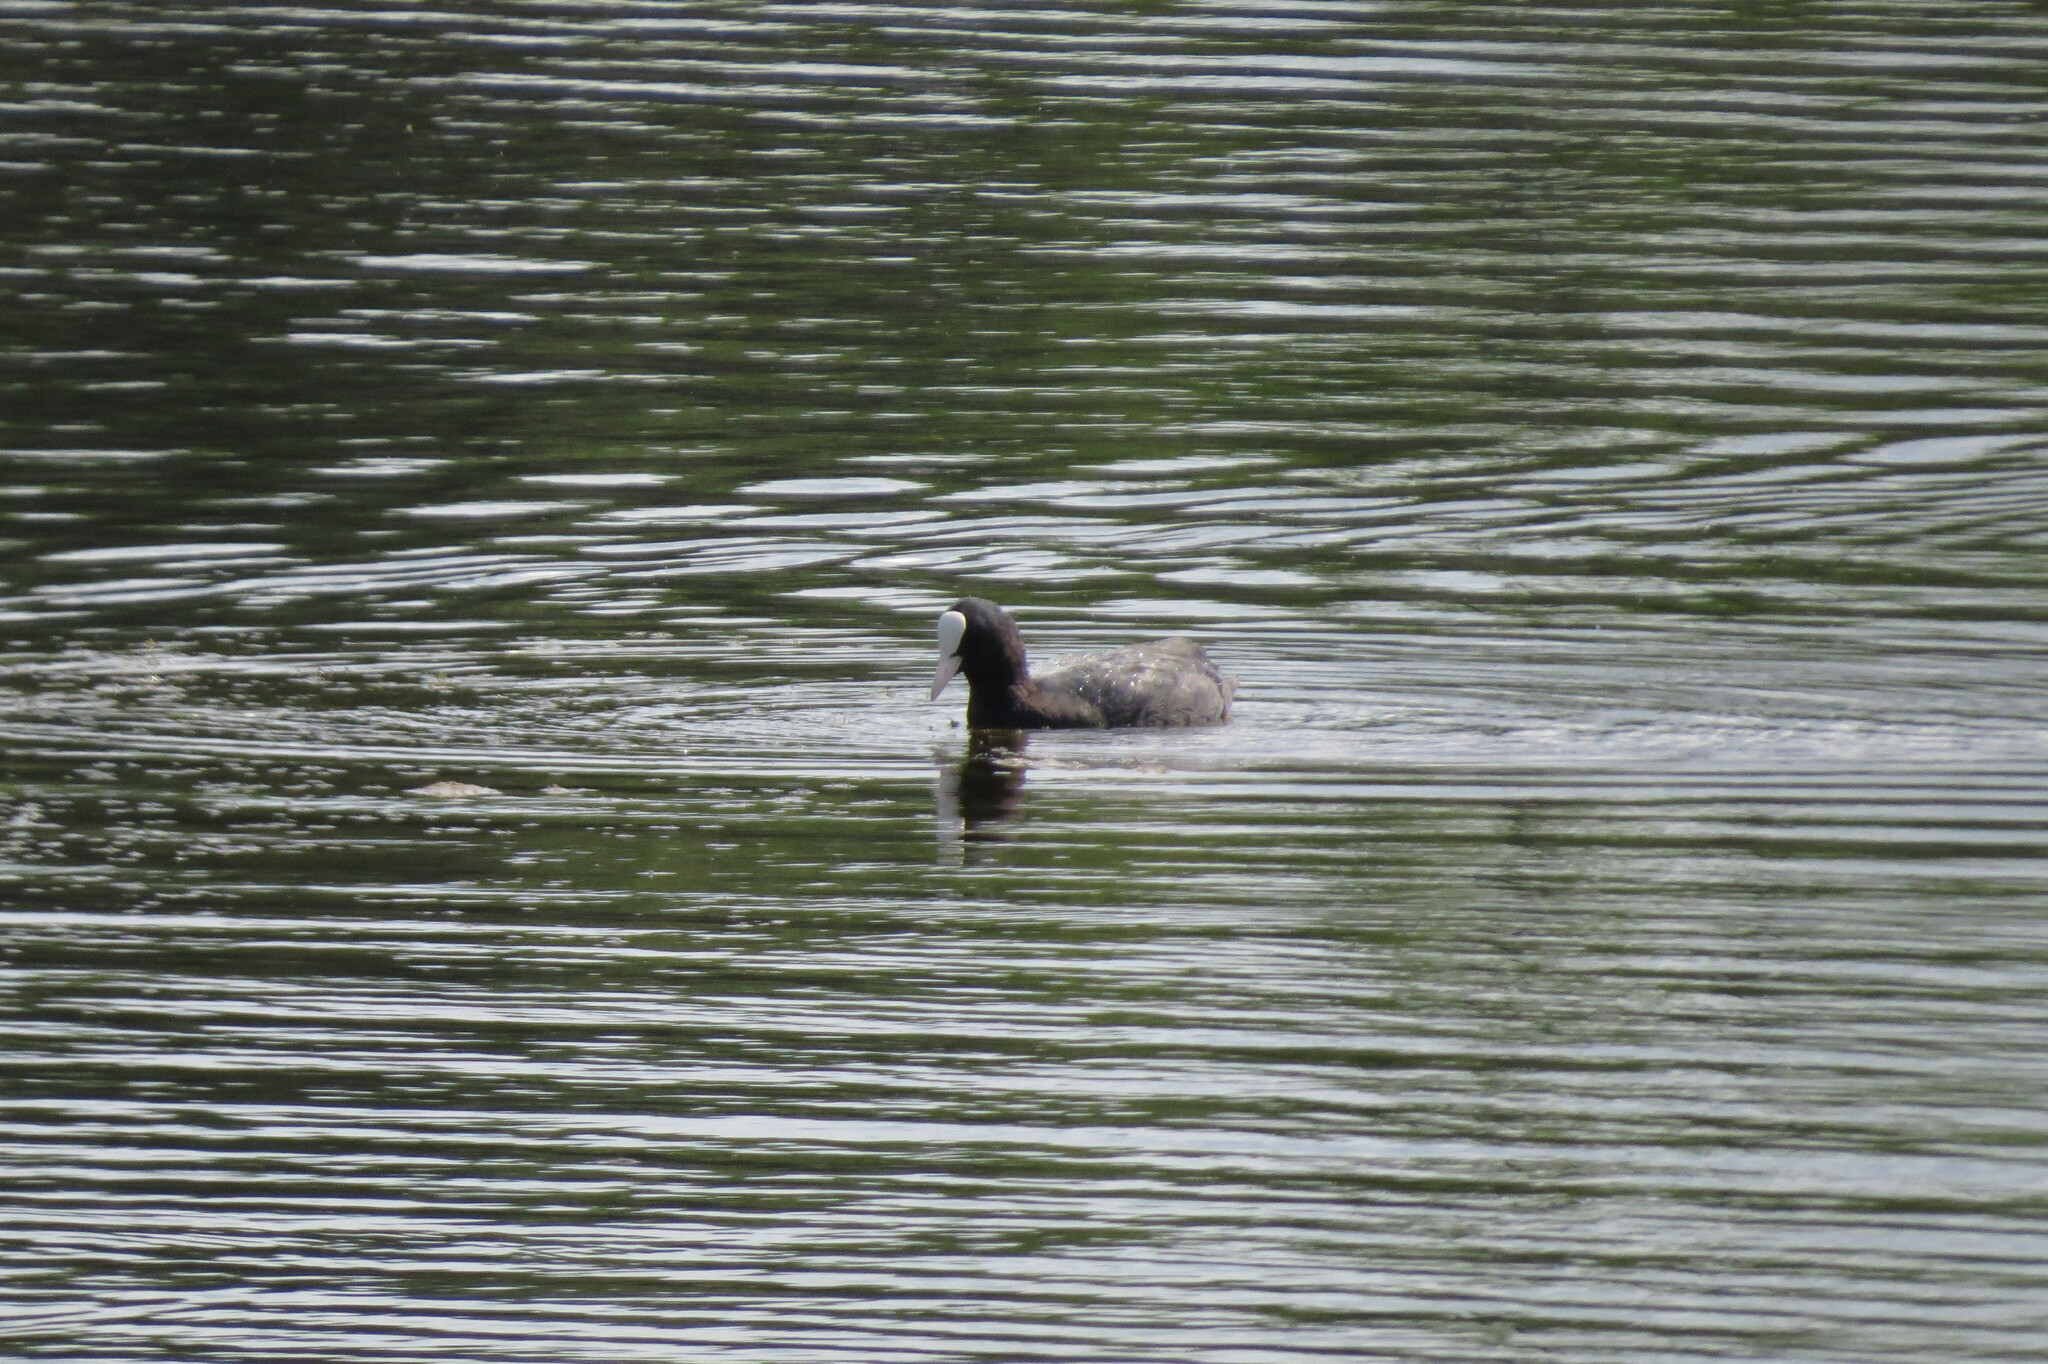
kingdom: Animalia
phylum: Chordata
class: Aves
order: Gruiformes
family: Rallidae
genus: Fulica
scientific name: Fulica atra
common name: Eurasian coot
